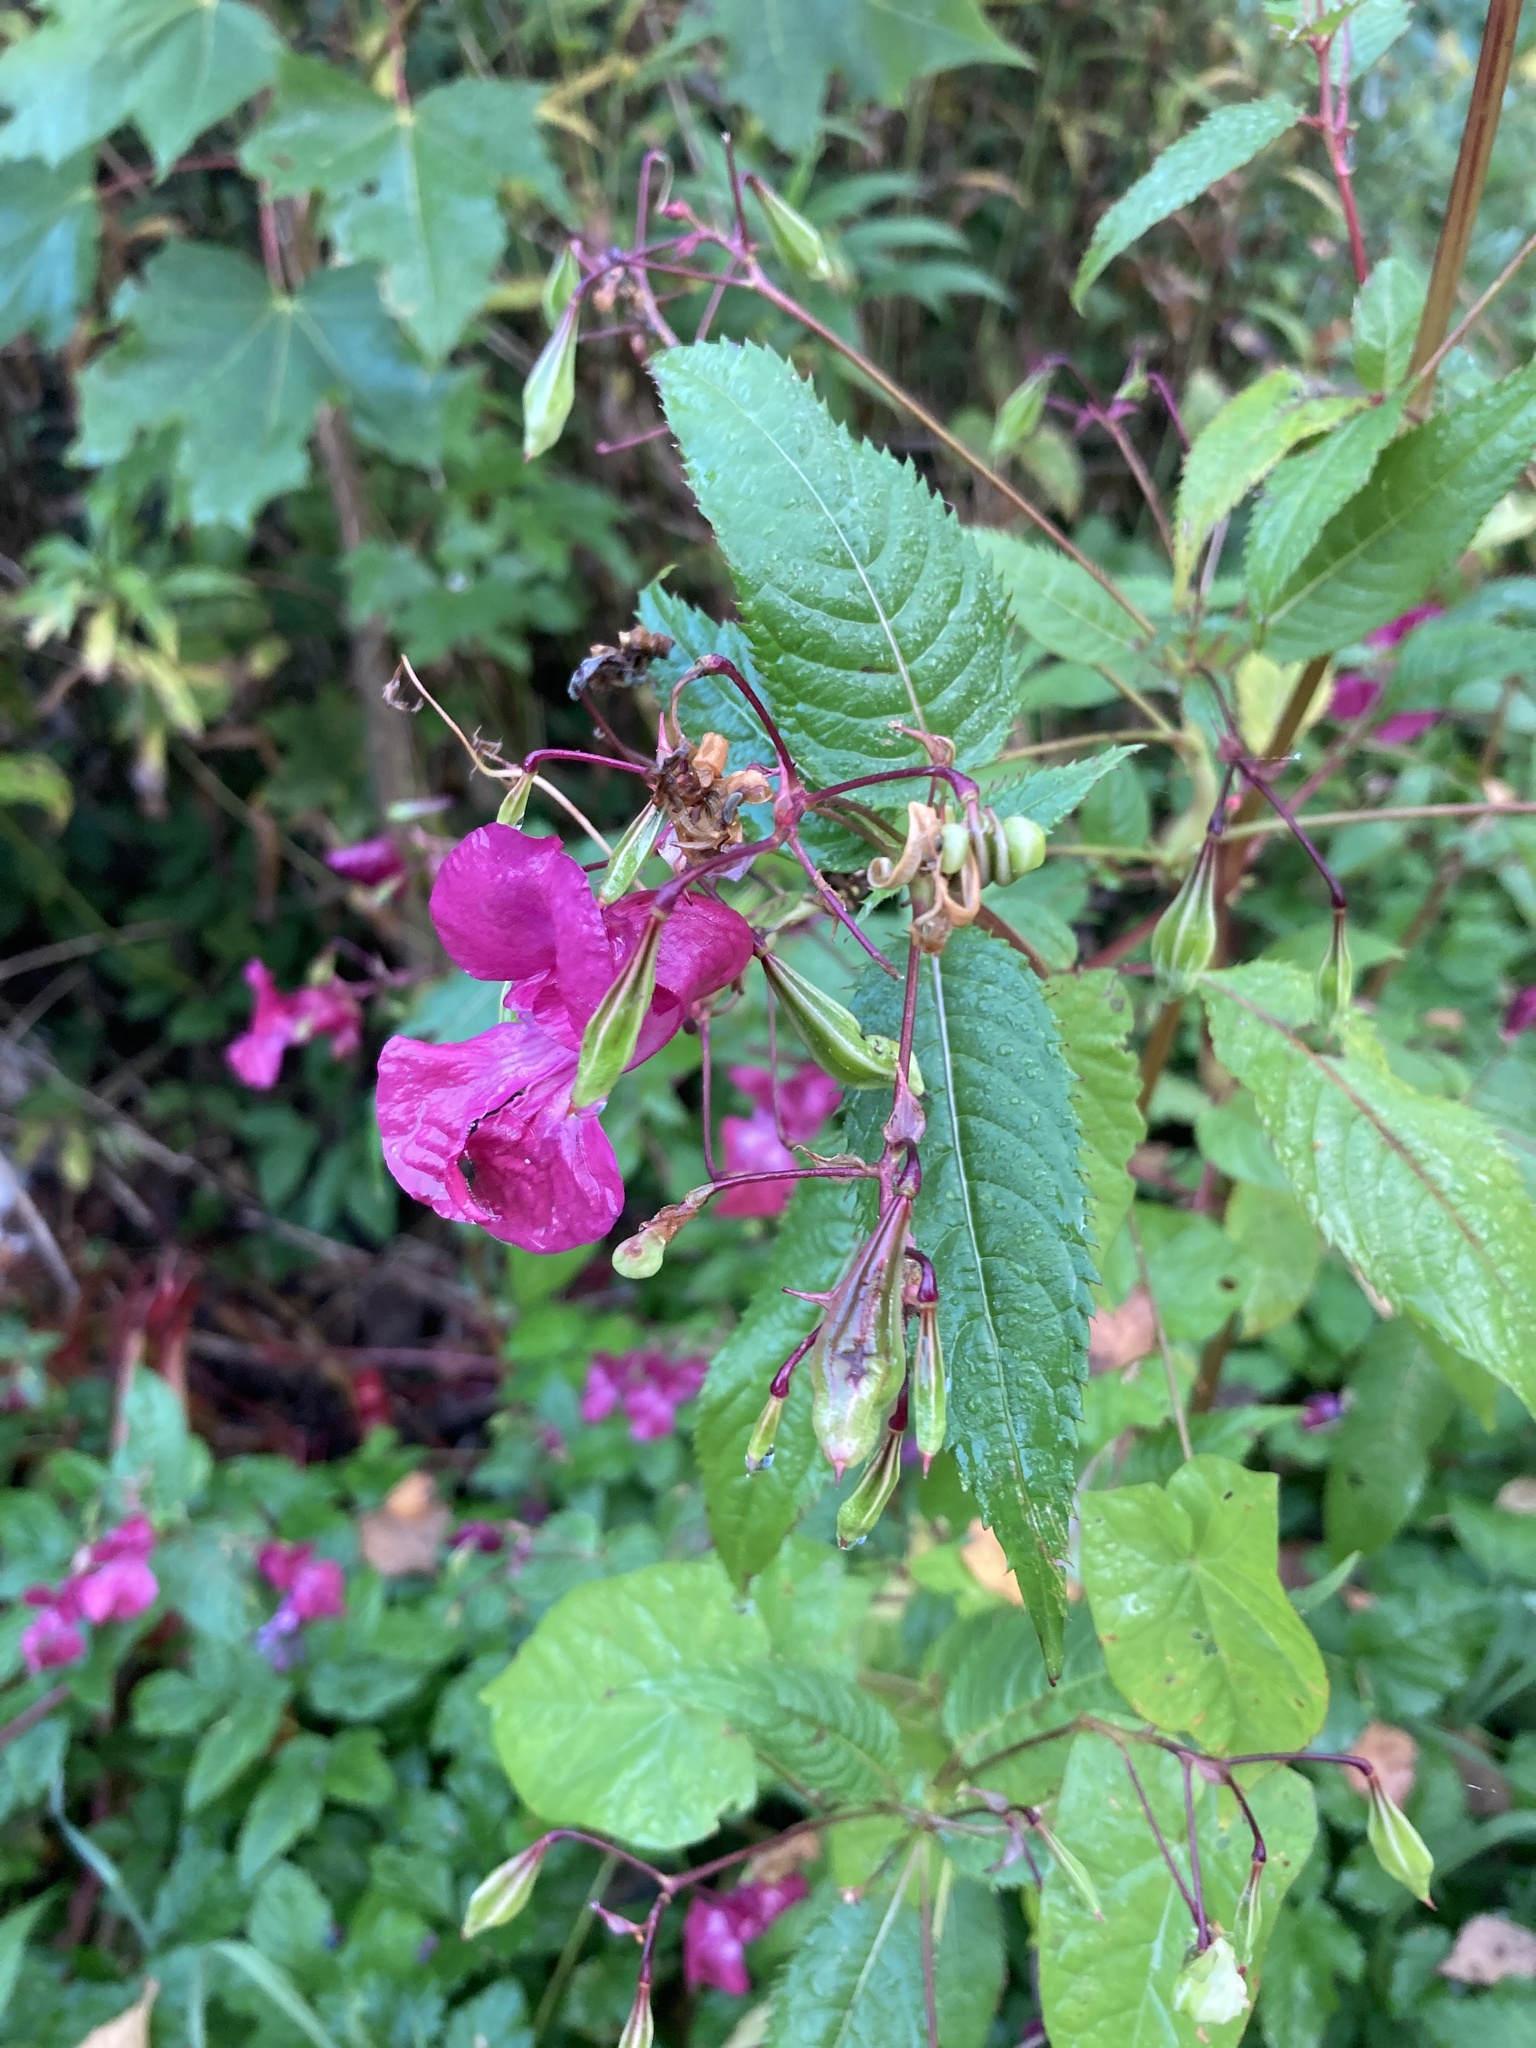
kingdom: Plantae
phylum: Tracheophyta
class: Magnoliopsida
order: Ericales
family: Balsaminaceae
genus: Impatiens
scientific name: Impatiens glandulifera
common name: Himalayan balsam
